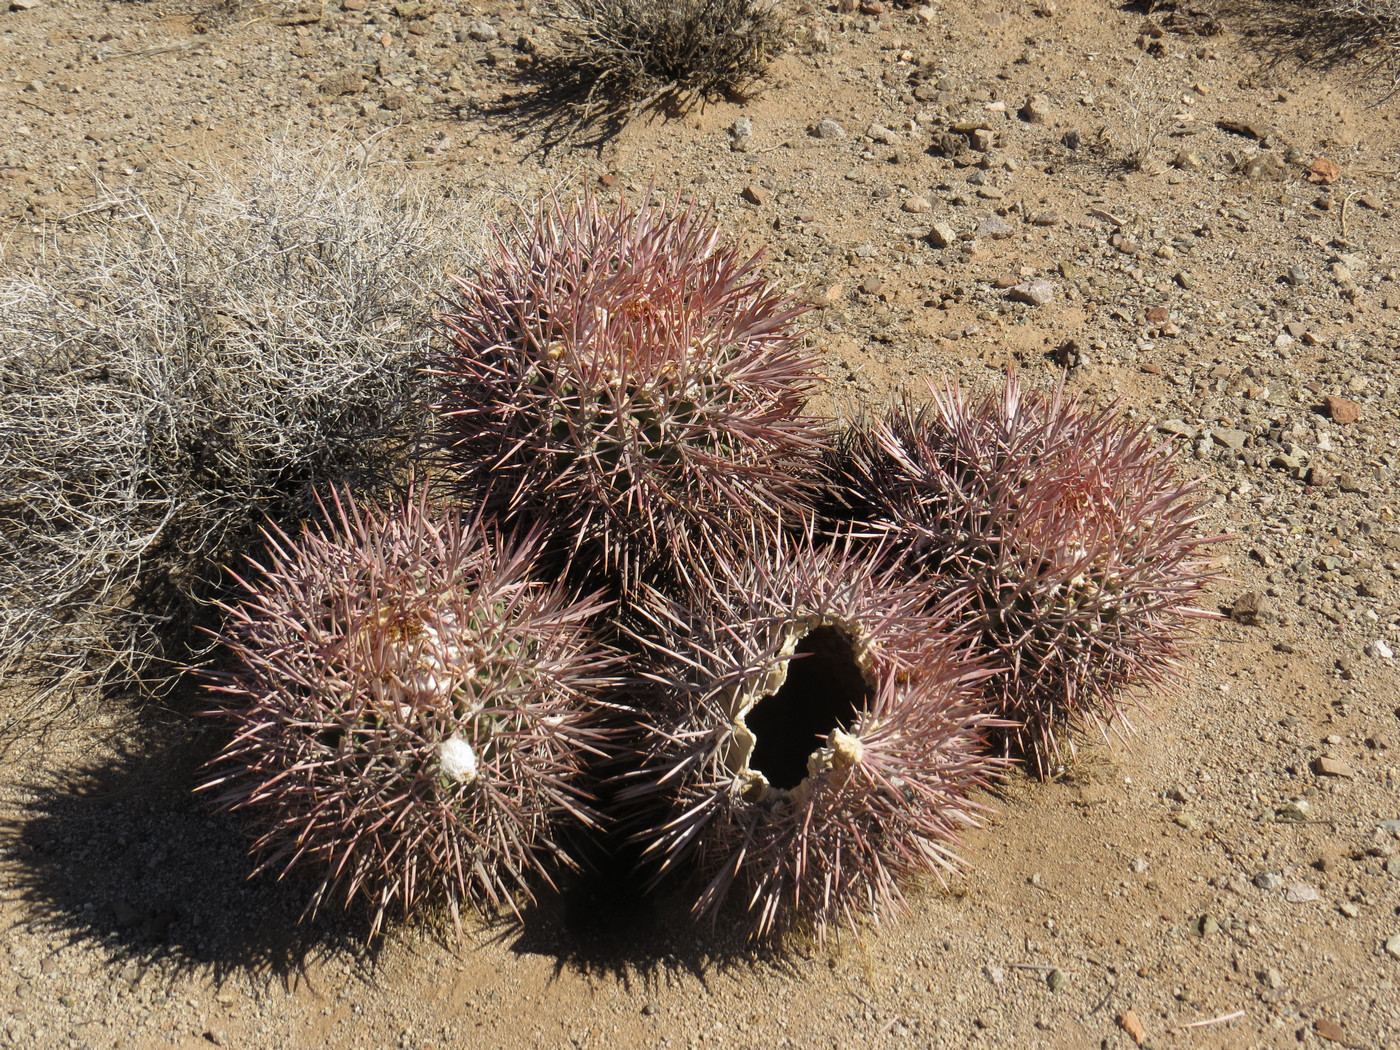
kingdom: Plantae
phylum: Tracheophyta
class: Magnoliopsida
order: Caryophyllales
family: Cactaceae
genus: Echinocactus
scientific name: Echinocactus polycephalus
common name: Cottontop cactus
